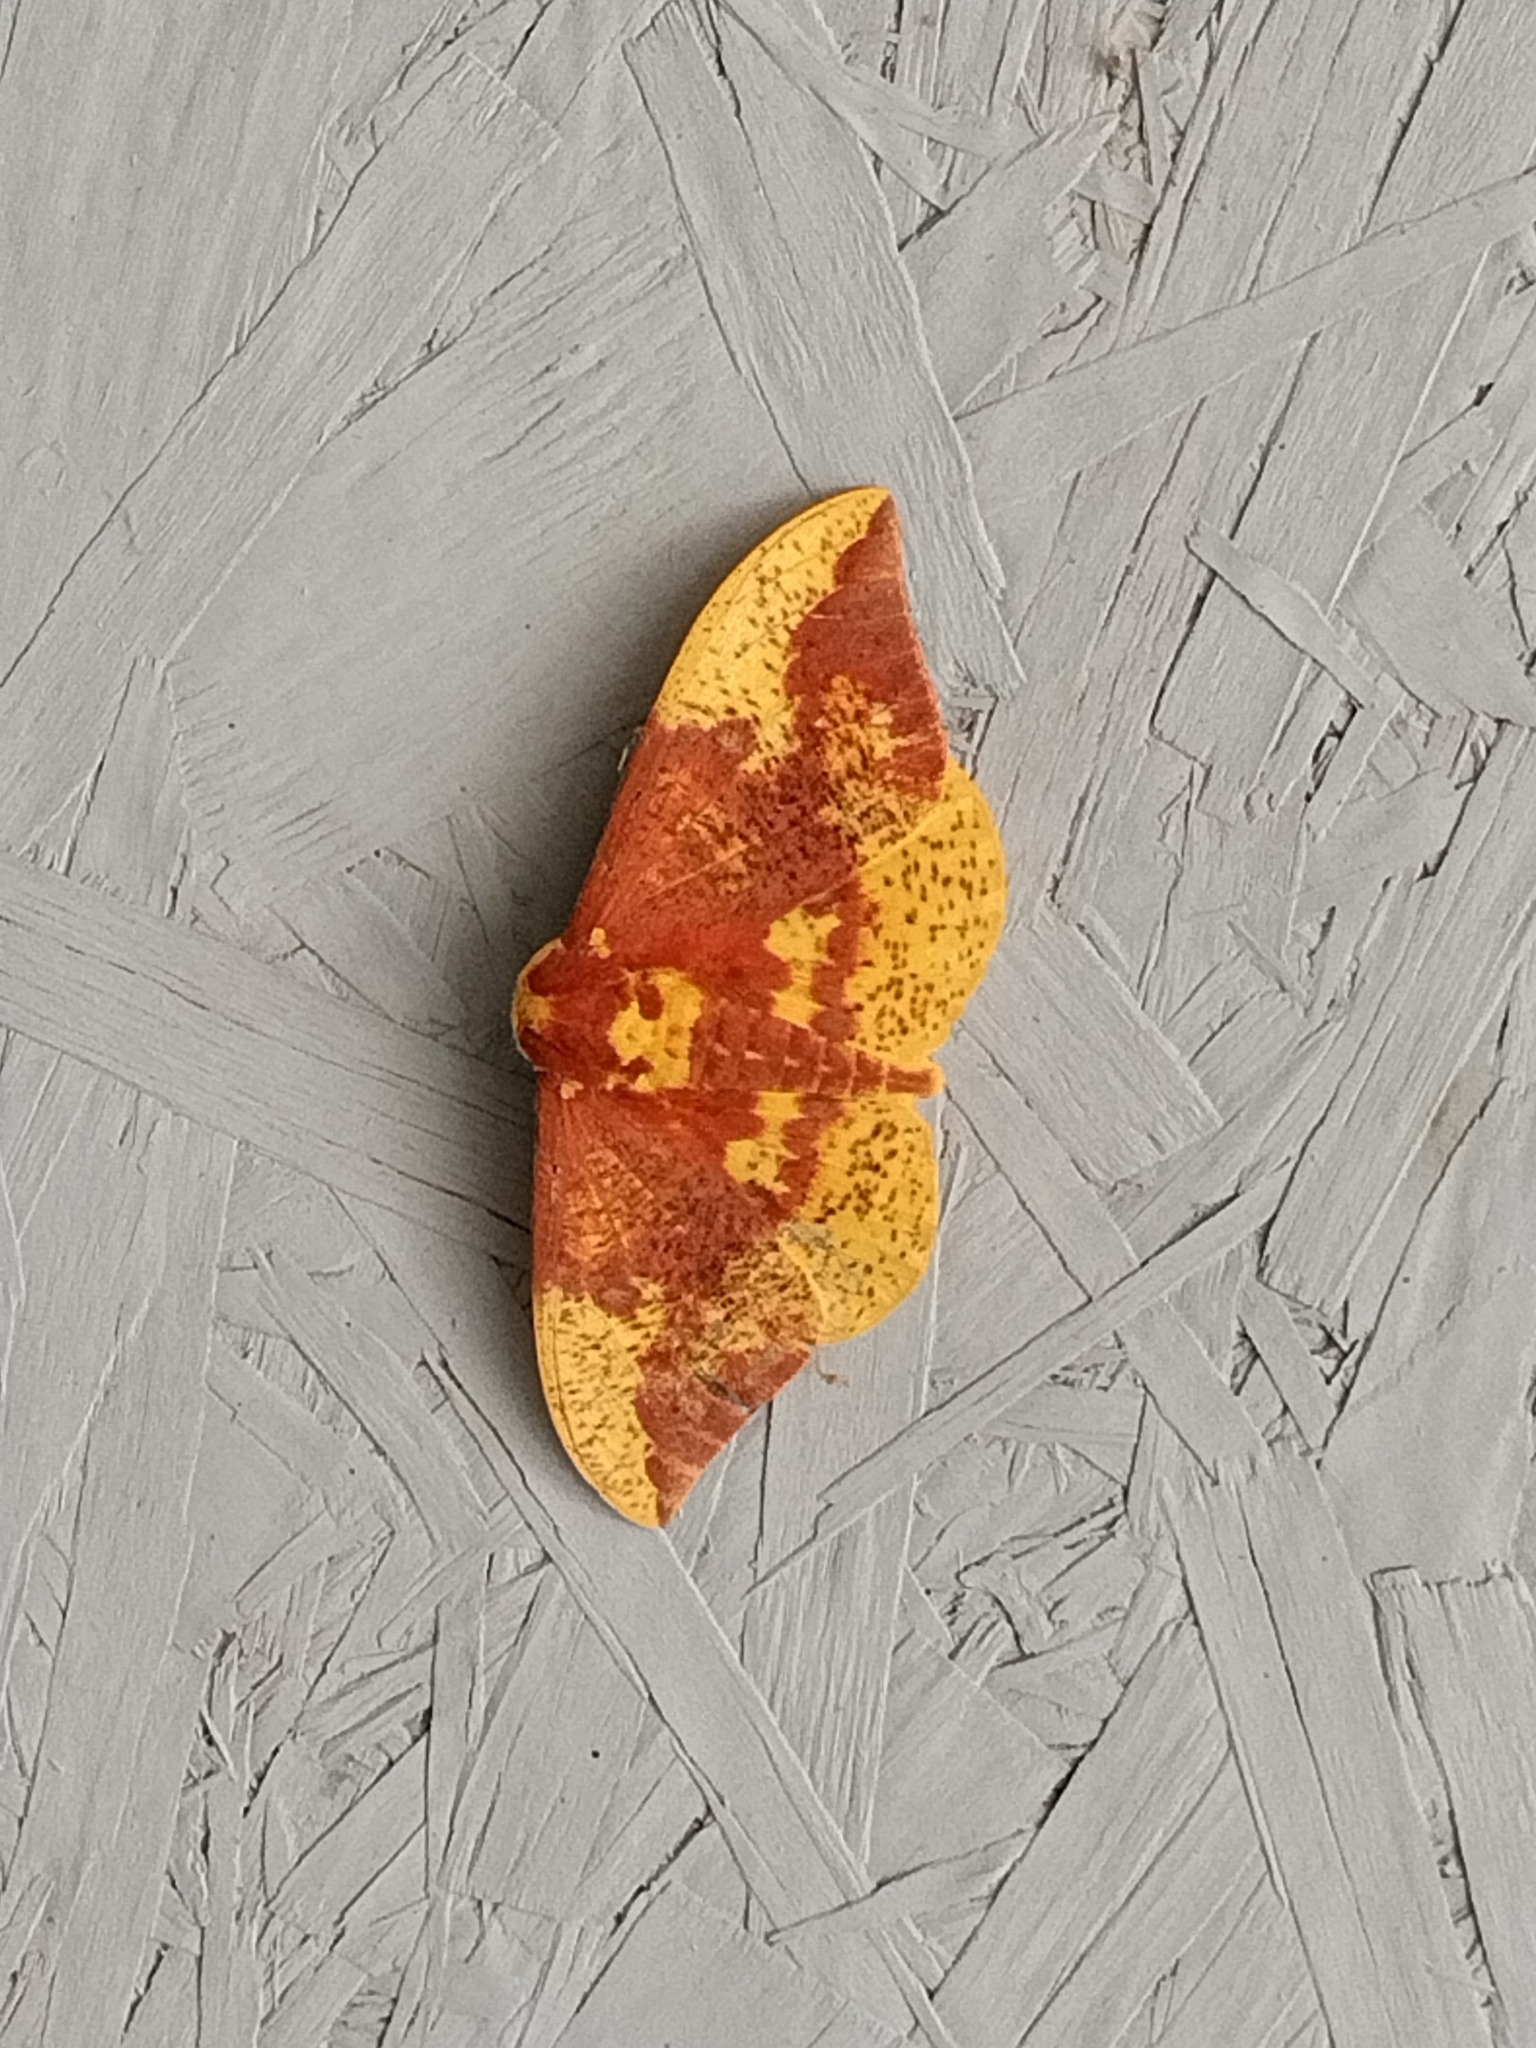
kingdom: Animalia
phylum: Arthropoda
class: Insecta
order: Lepidoptera
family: Saturniidae
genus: Eacles
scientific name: Eacles imperialis
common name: Imperial moth
